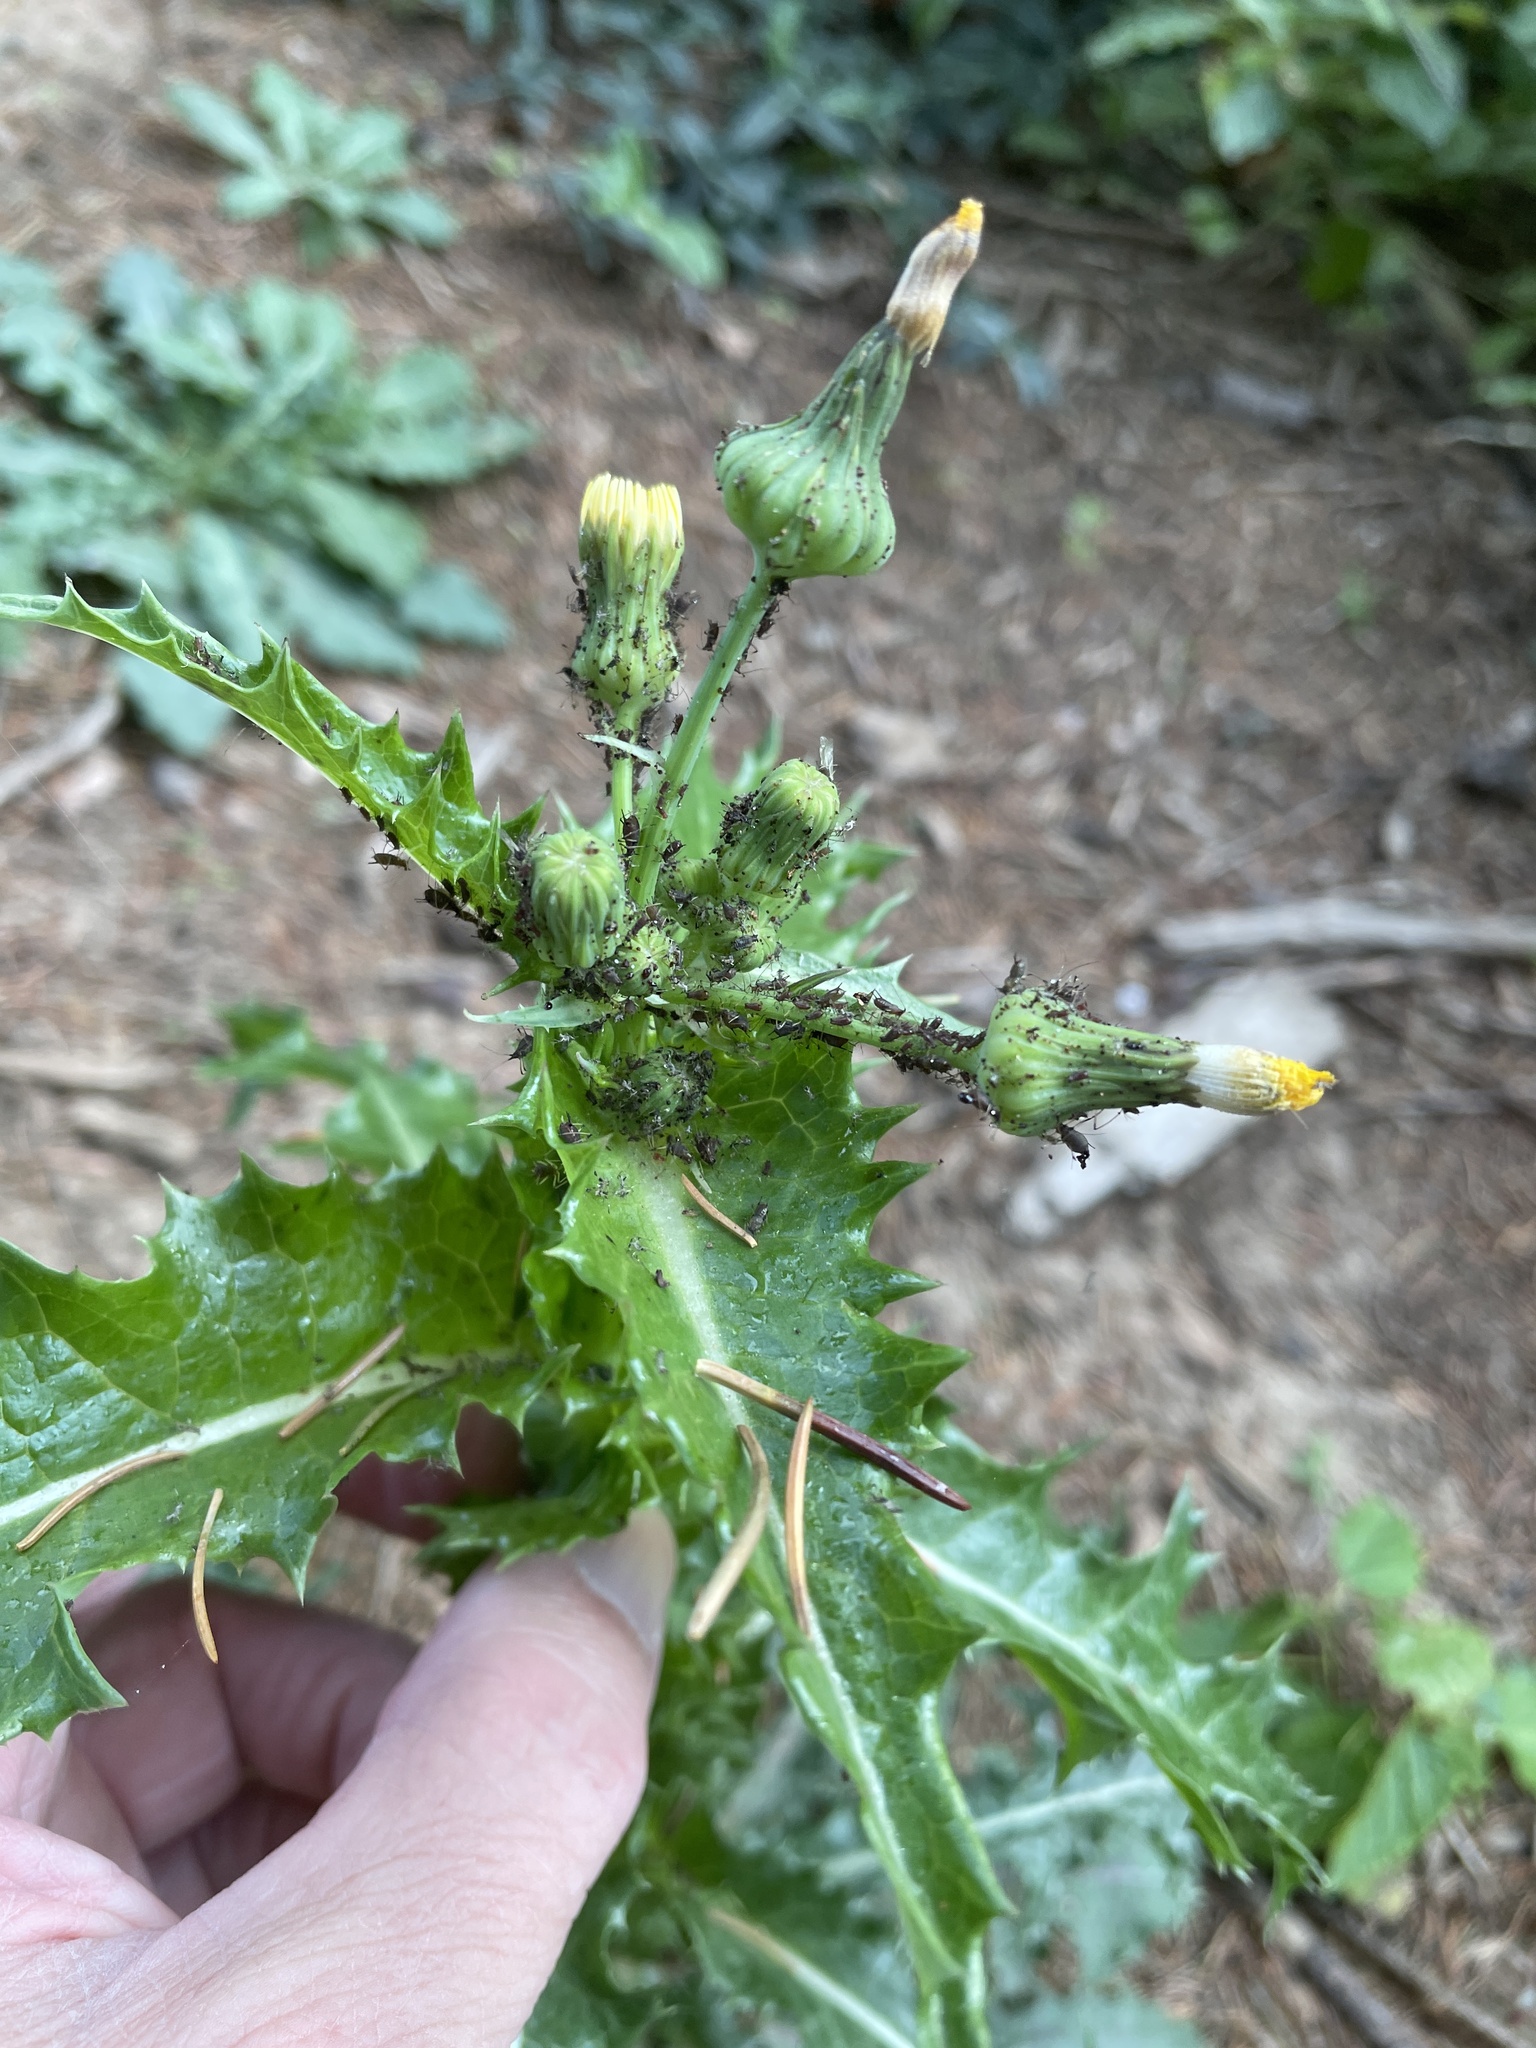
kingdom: Plantae
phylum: Tracheophyta
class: Magnoliopsida
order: Asterales
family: Asteraceae
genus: Sonchus
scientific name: Sonchus asper
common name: Prickly sow-thistle
